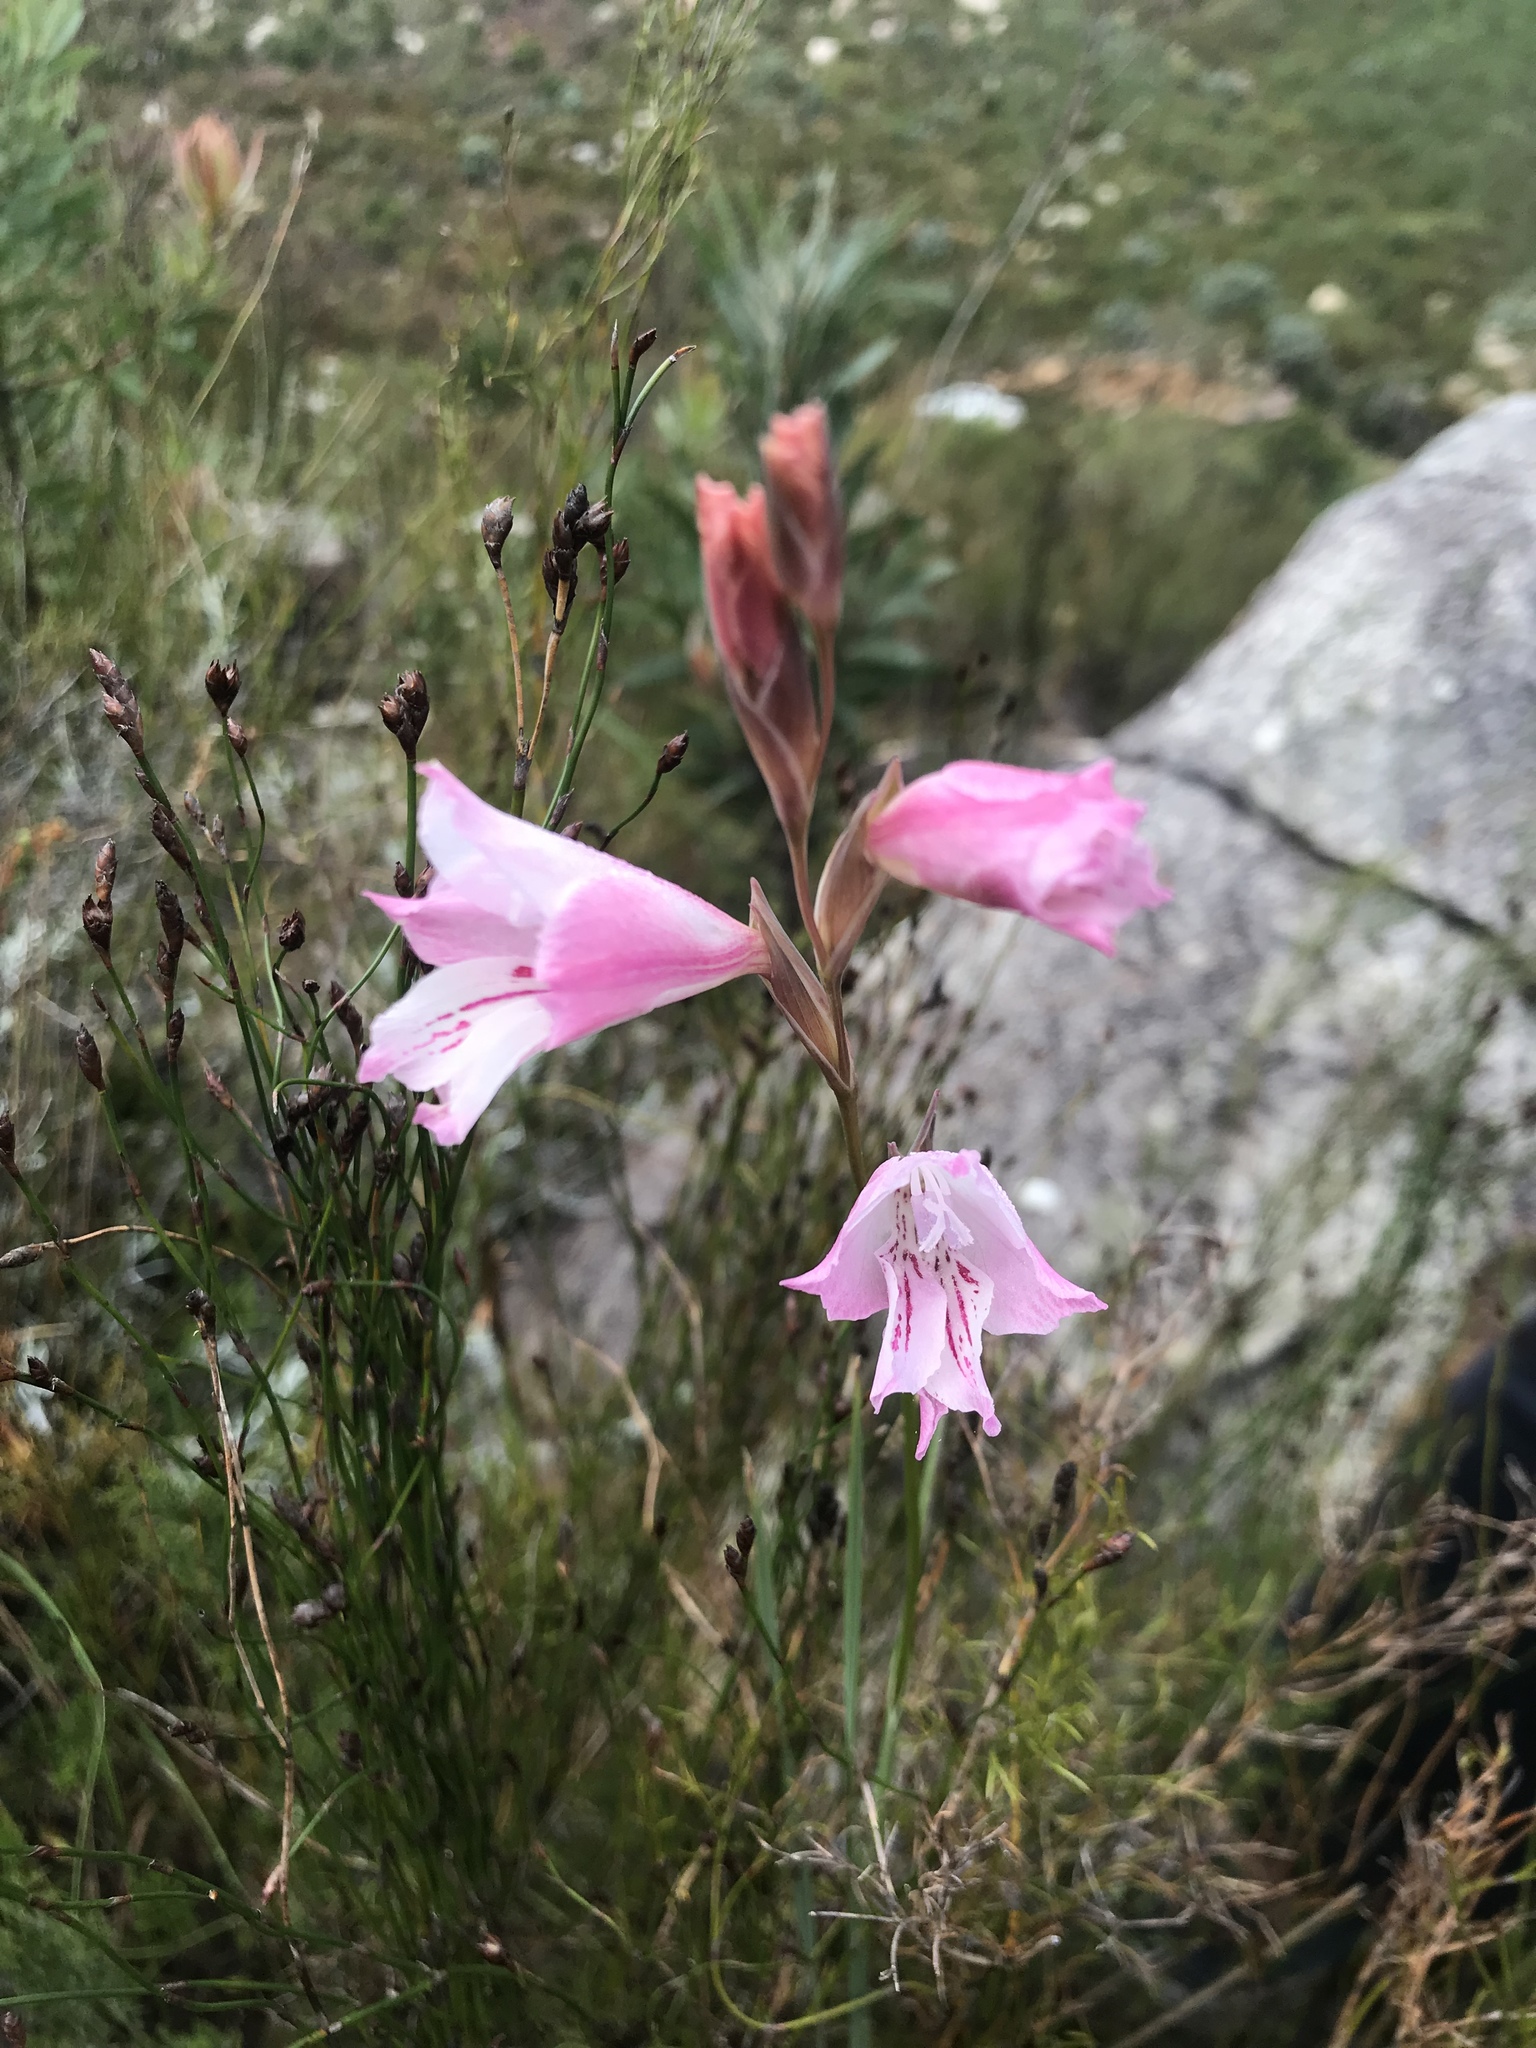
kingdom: Plantae
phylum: Tracheophyta
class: Liliopsida
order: Asparagales
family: Iridaceae
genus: Gladiolus
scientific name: Gladiolus hirsutus
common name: Small pink afrikaner
